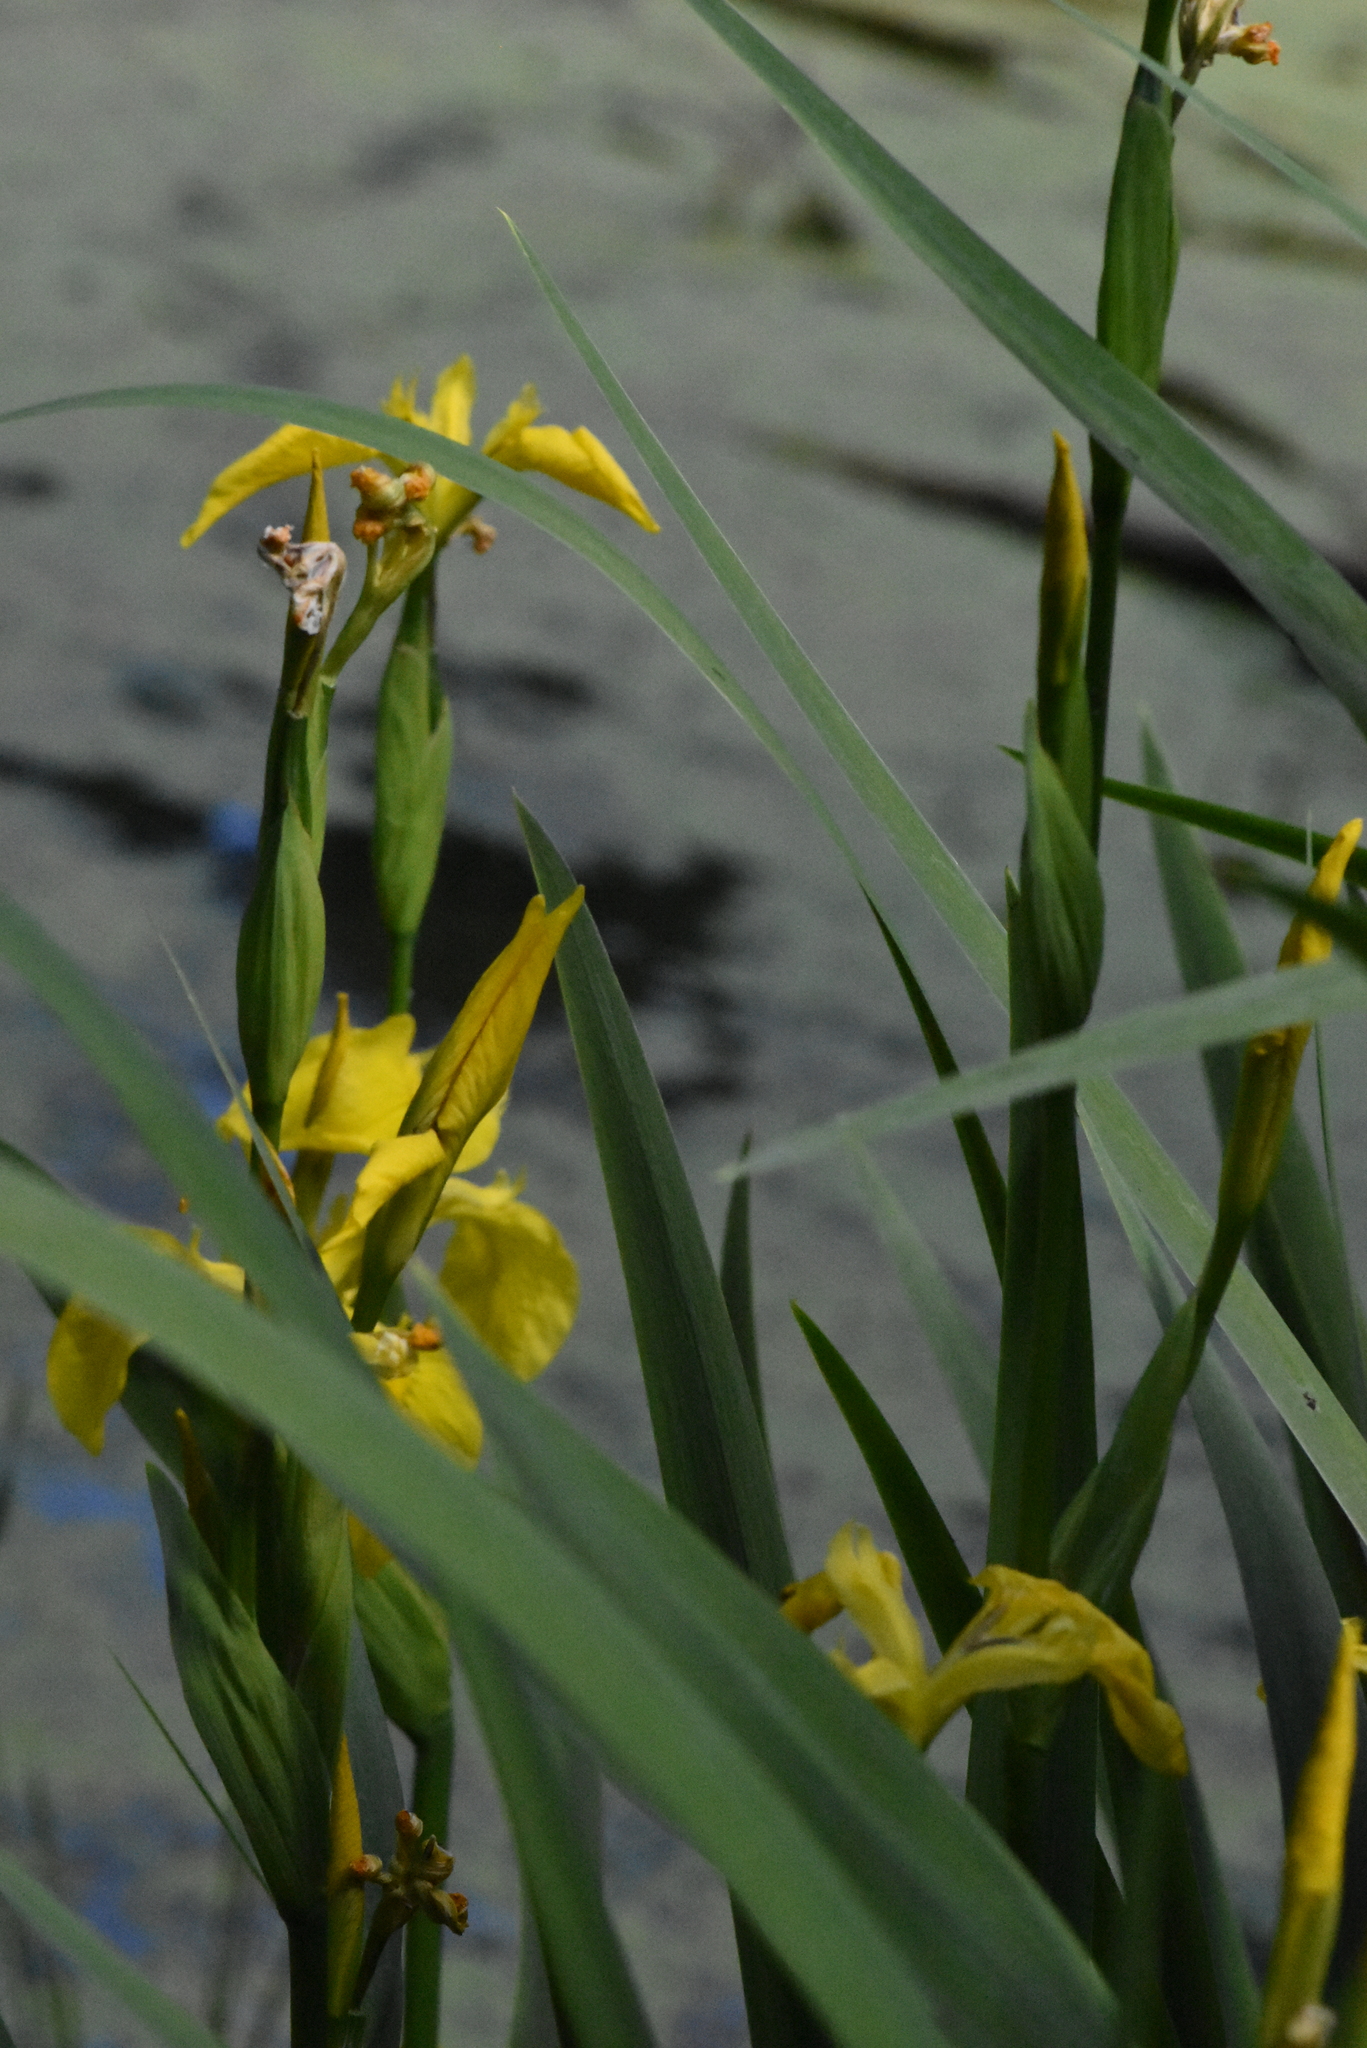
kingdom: Plantae
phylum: Tracheophyta
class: Liliopsida
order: Asparagales
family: Iridaceae
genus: Iris
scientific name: Iris pseudacorus
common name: Yellow flag
